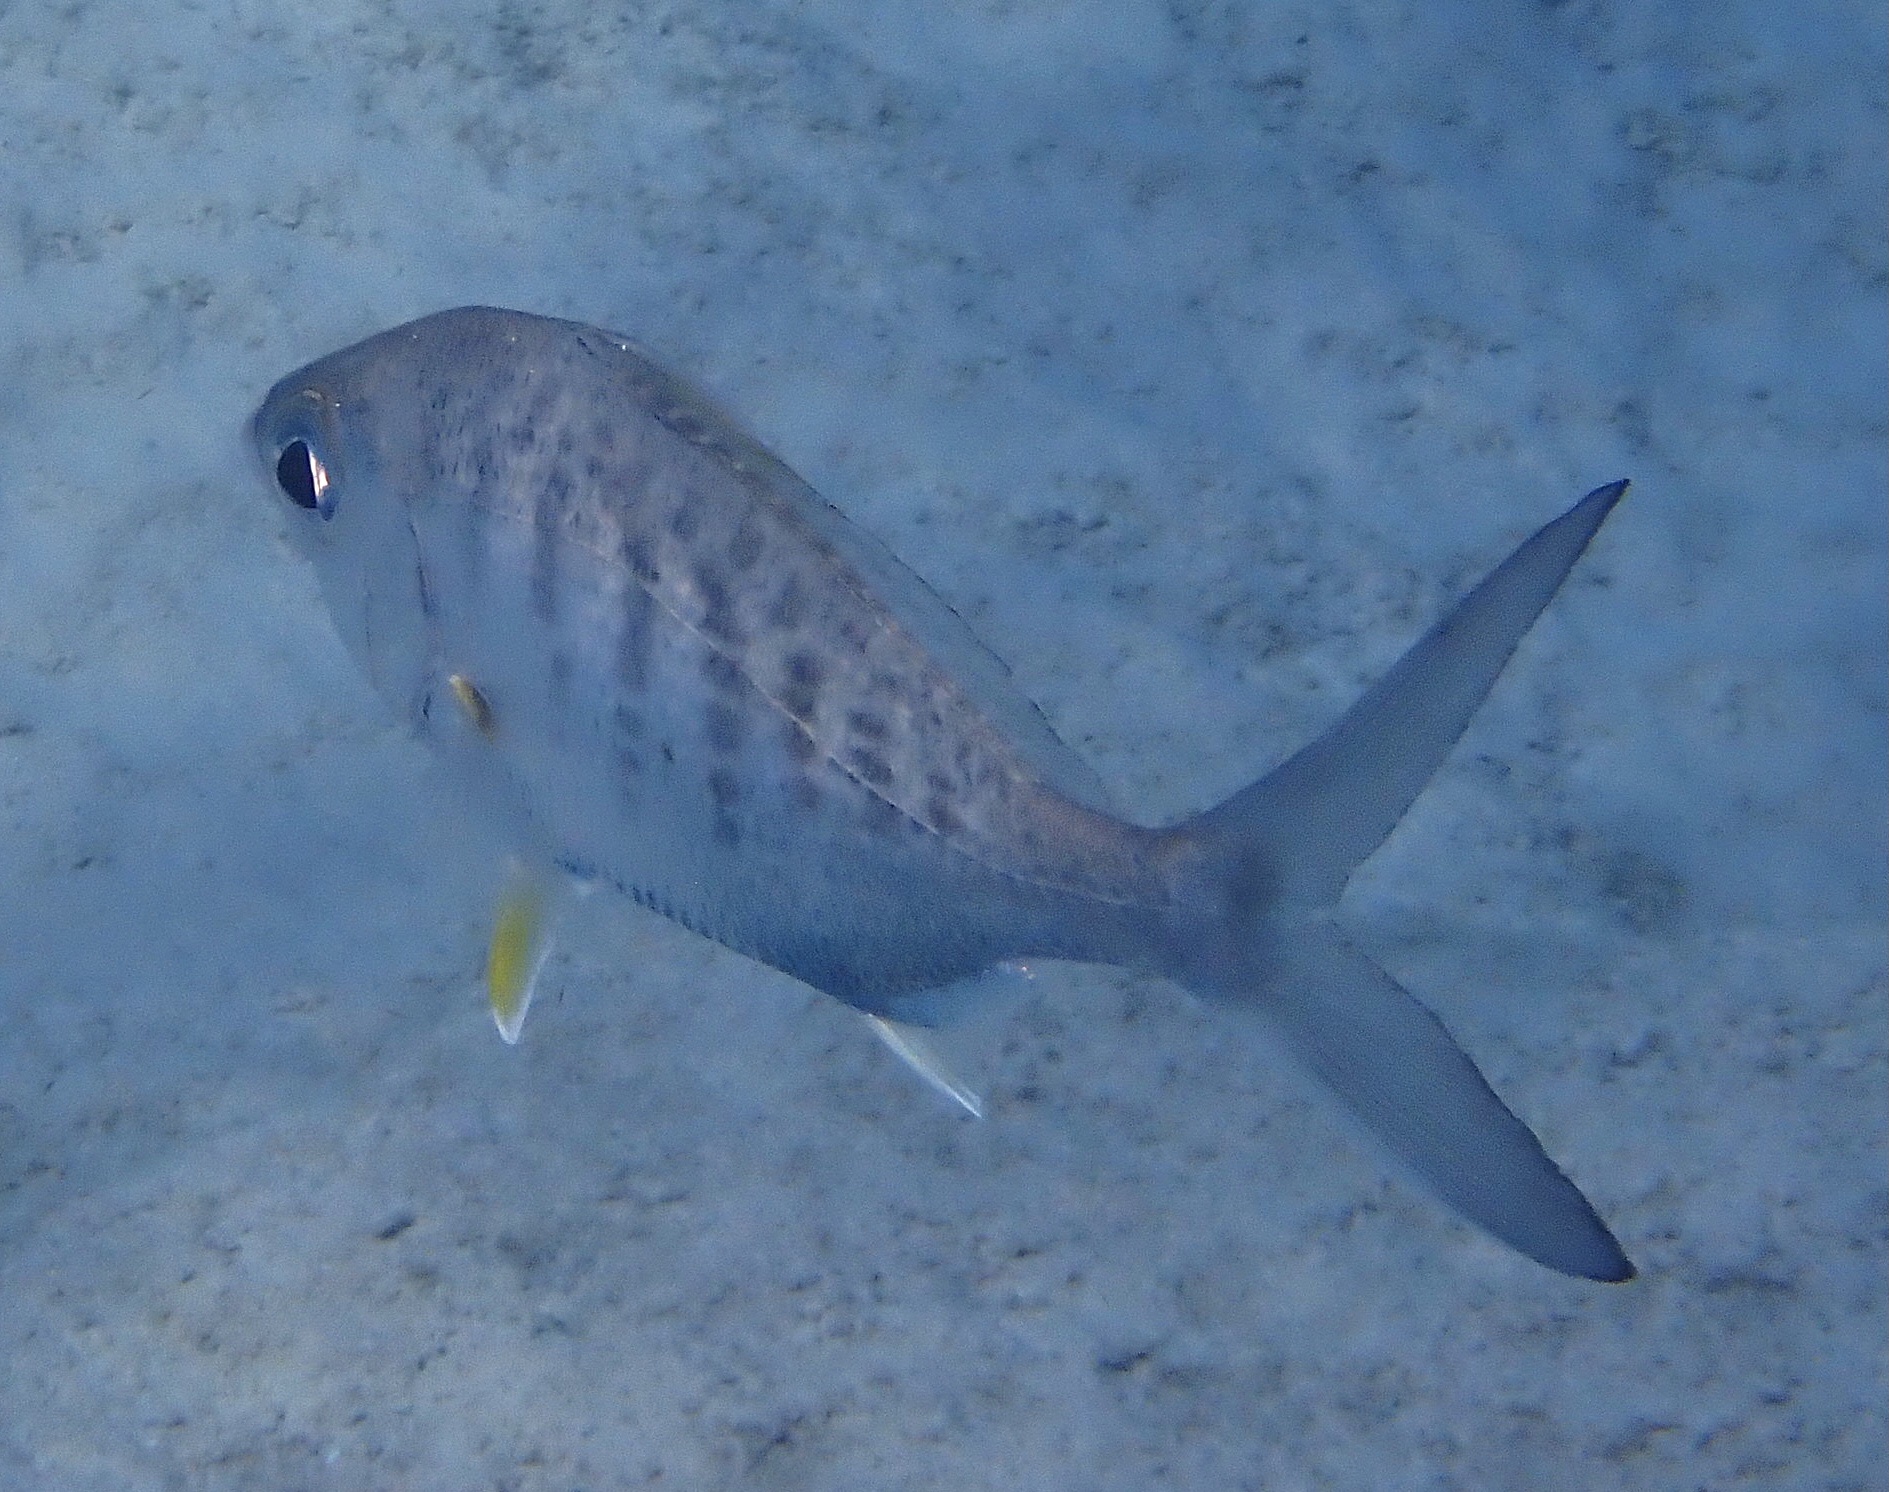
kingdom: Animalia
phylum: Chordata
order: Perciformes
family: Gerreidae
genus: Gerres
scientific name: Gerres cinereus
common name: Hedow
